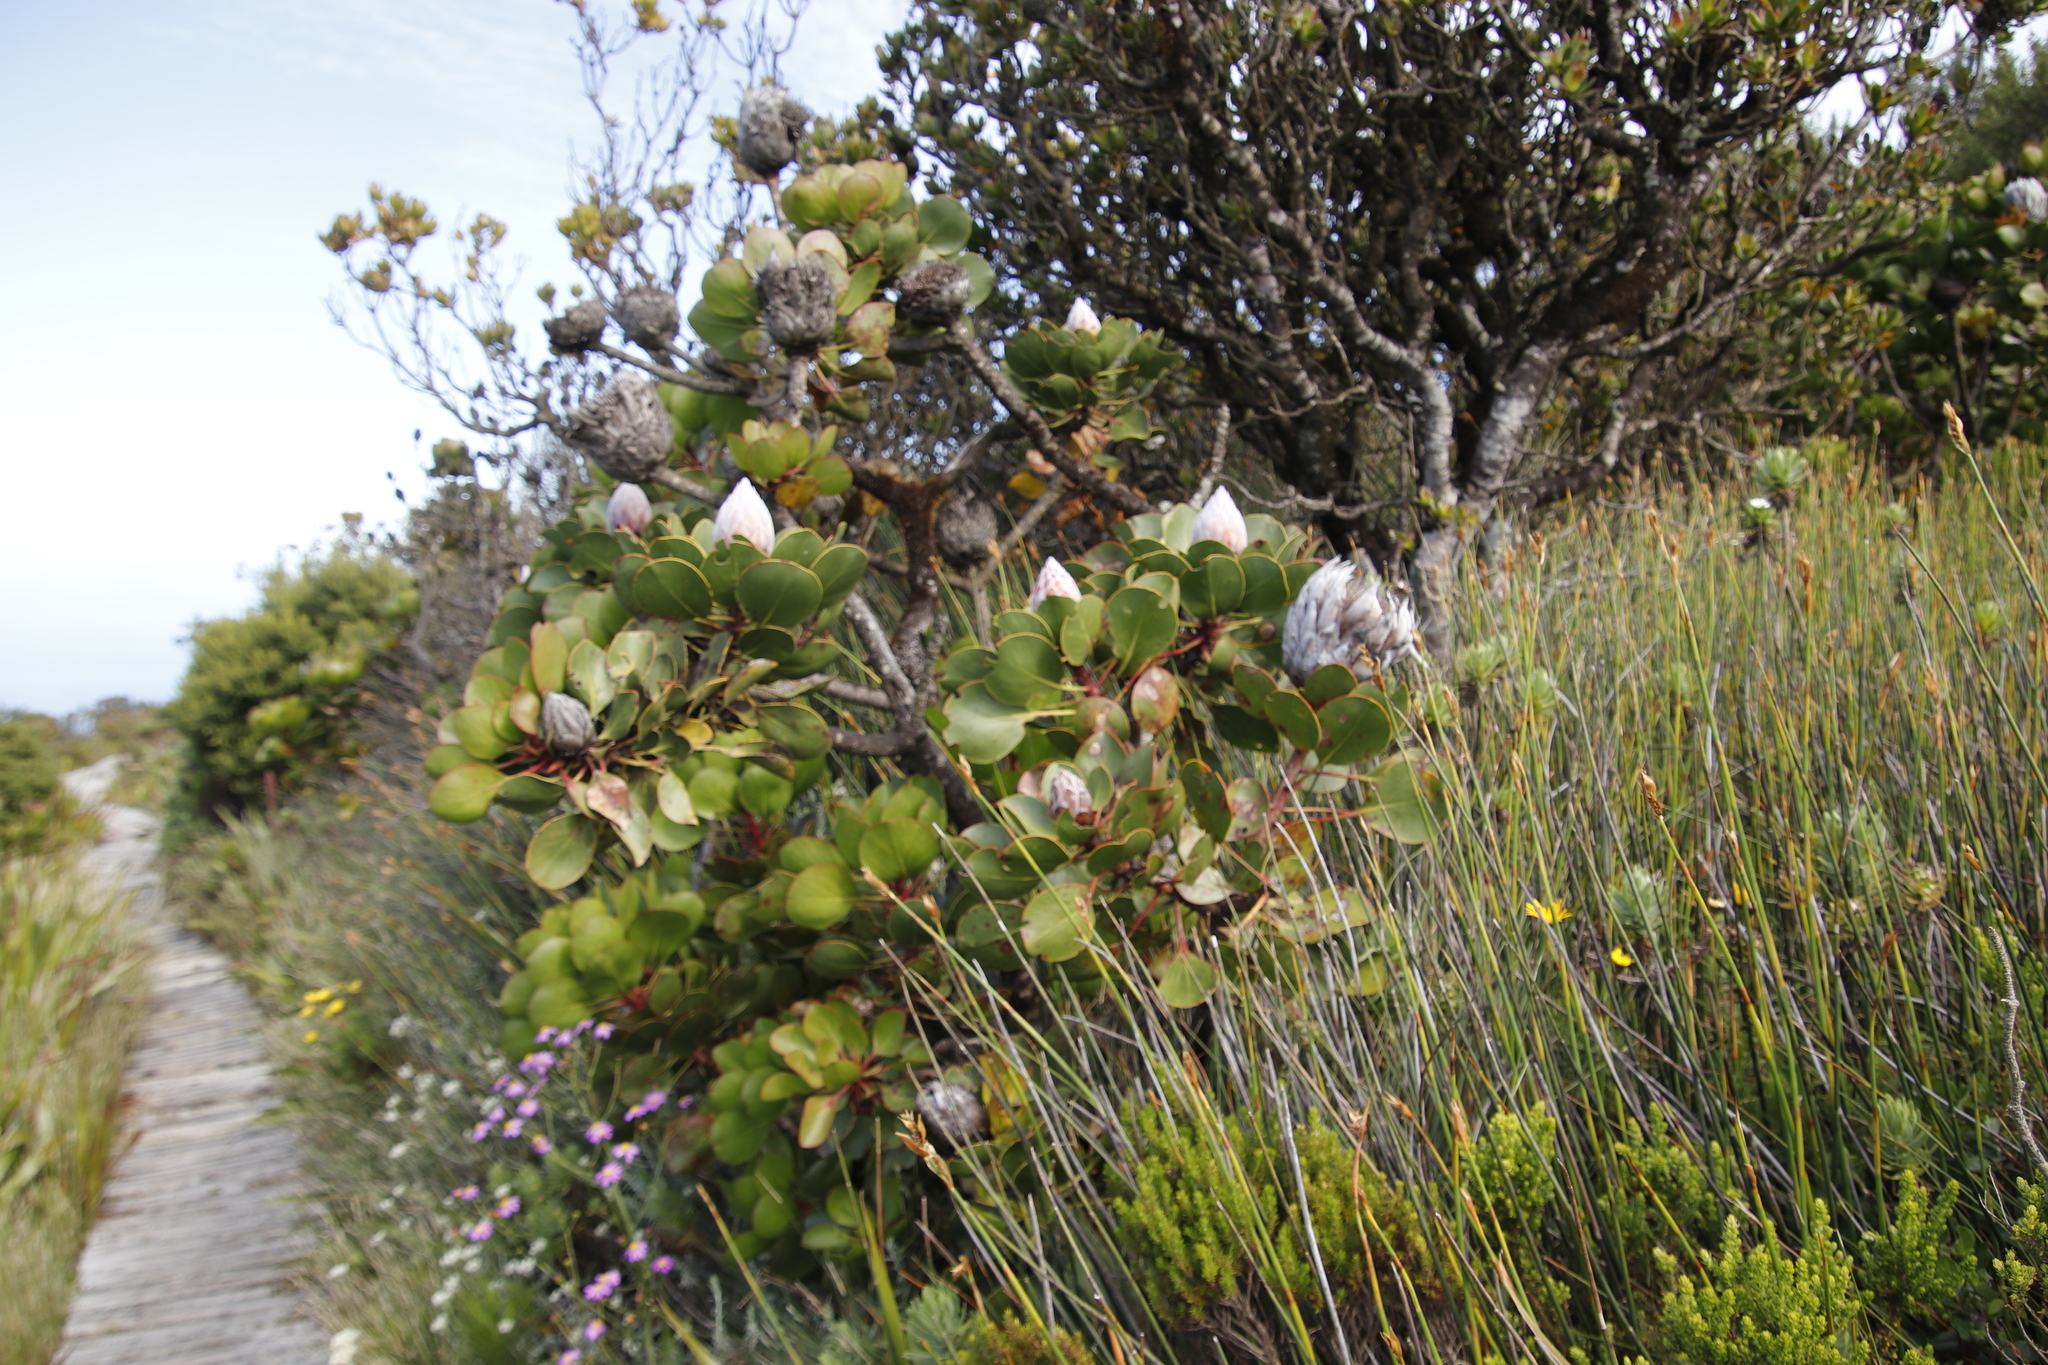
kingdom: Plantae
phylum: Tracheophyta
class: Magnoliopsida
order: Proteales
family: Proteaceae
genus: Protea
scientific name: Protea cynaroides
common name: King protea
